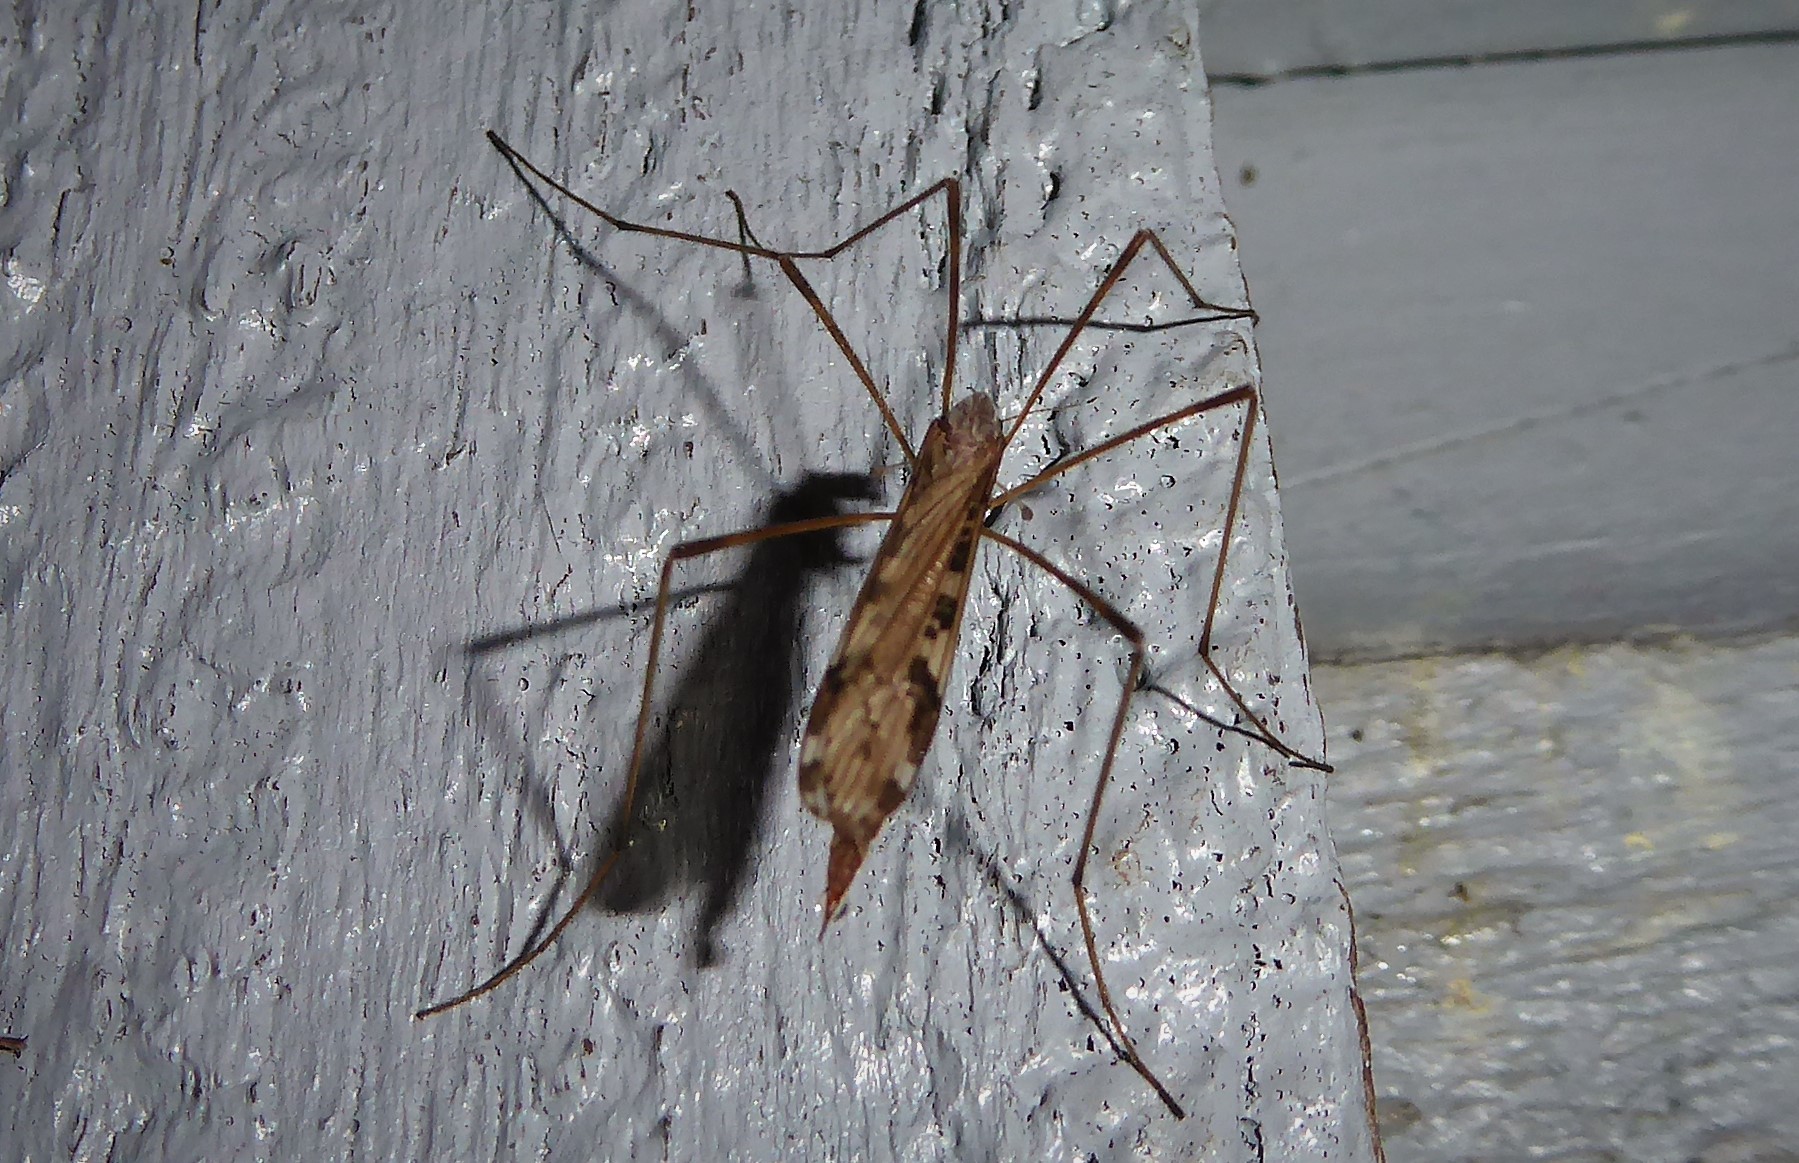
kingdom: Animalia
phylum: Arthropoda
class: Insecta
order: Diptera
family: Limoniidae
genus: Paralimnophila
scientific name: Paralimnophila skusei
